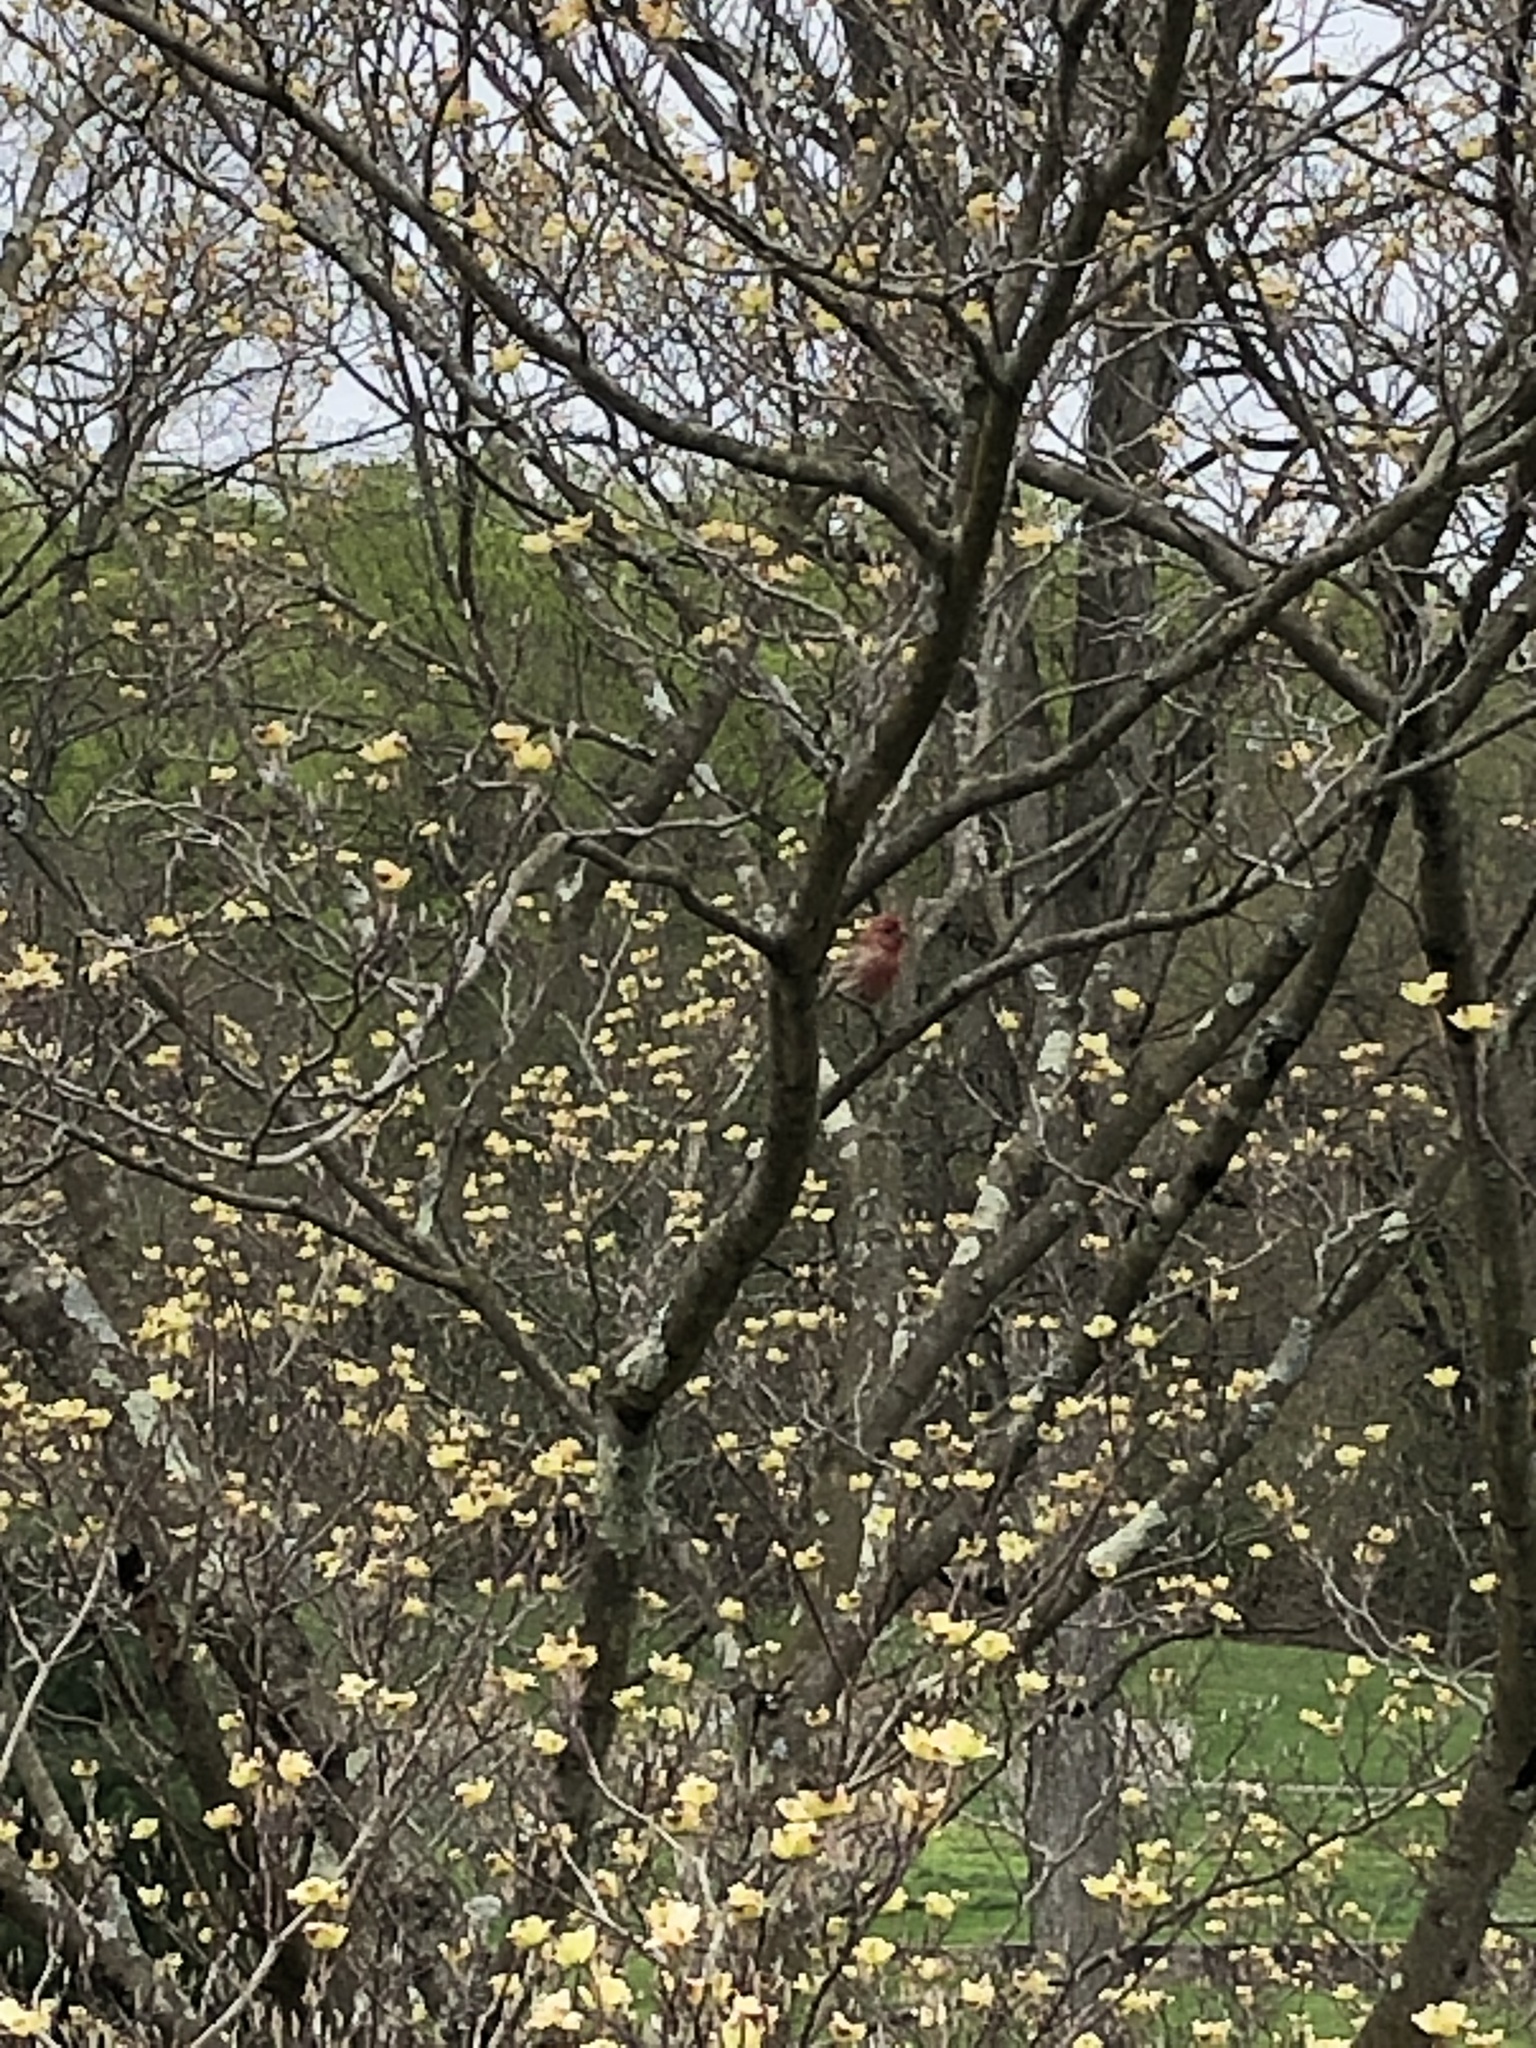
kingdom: Animalia
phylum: Chordata
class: Aves
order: Passeriformes
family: Fringillidae
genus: Haemorhous
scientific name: Haemorhous mexicanus
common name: House finch
